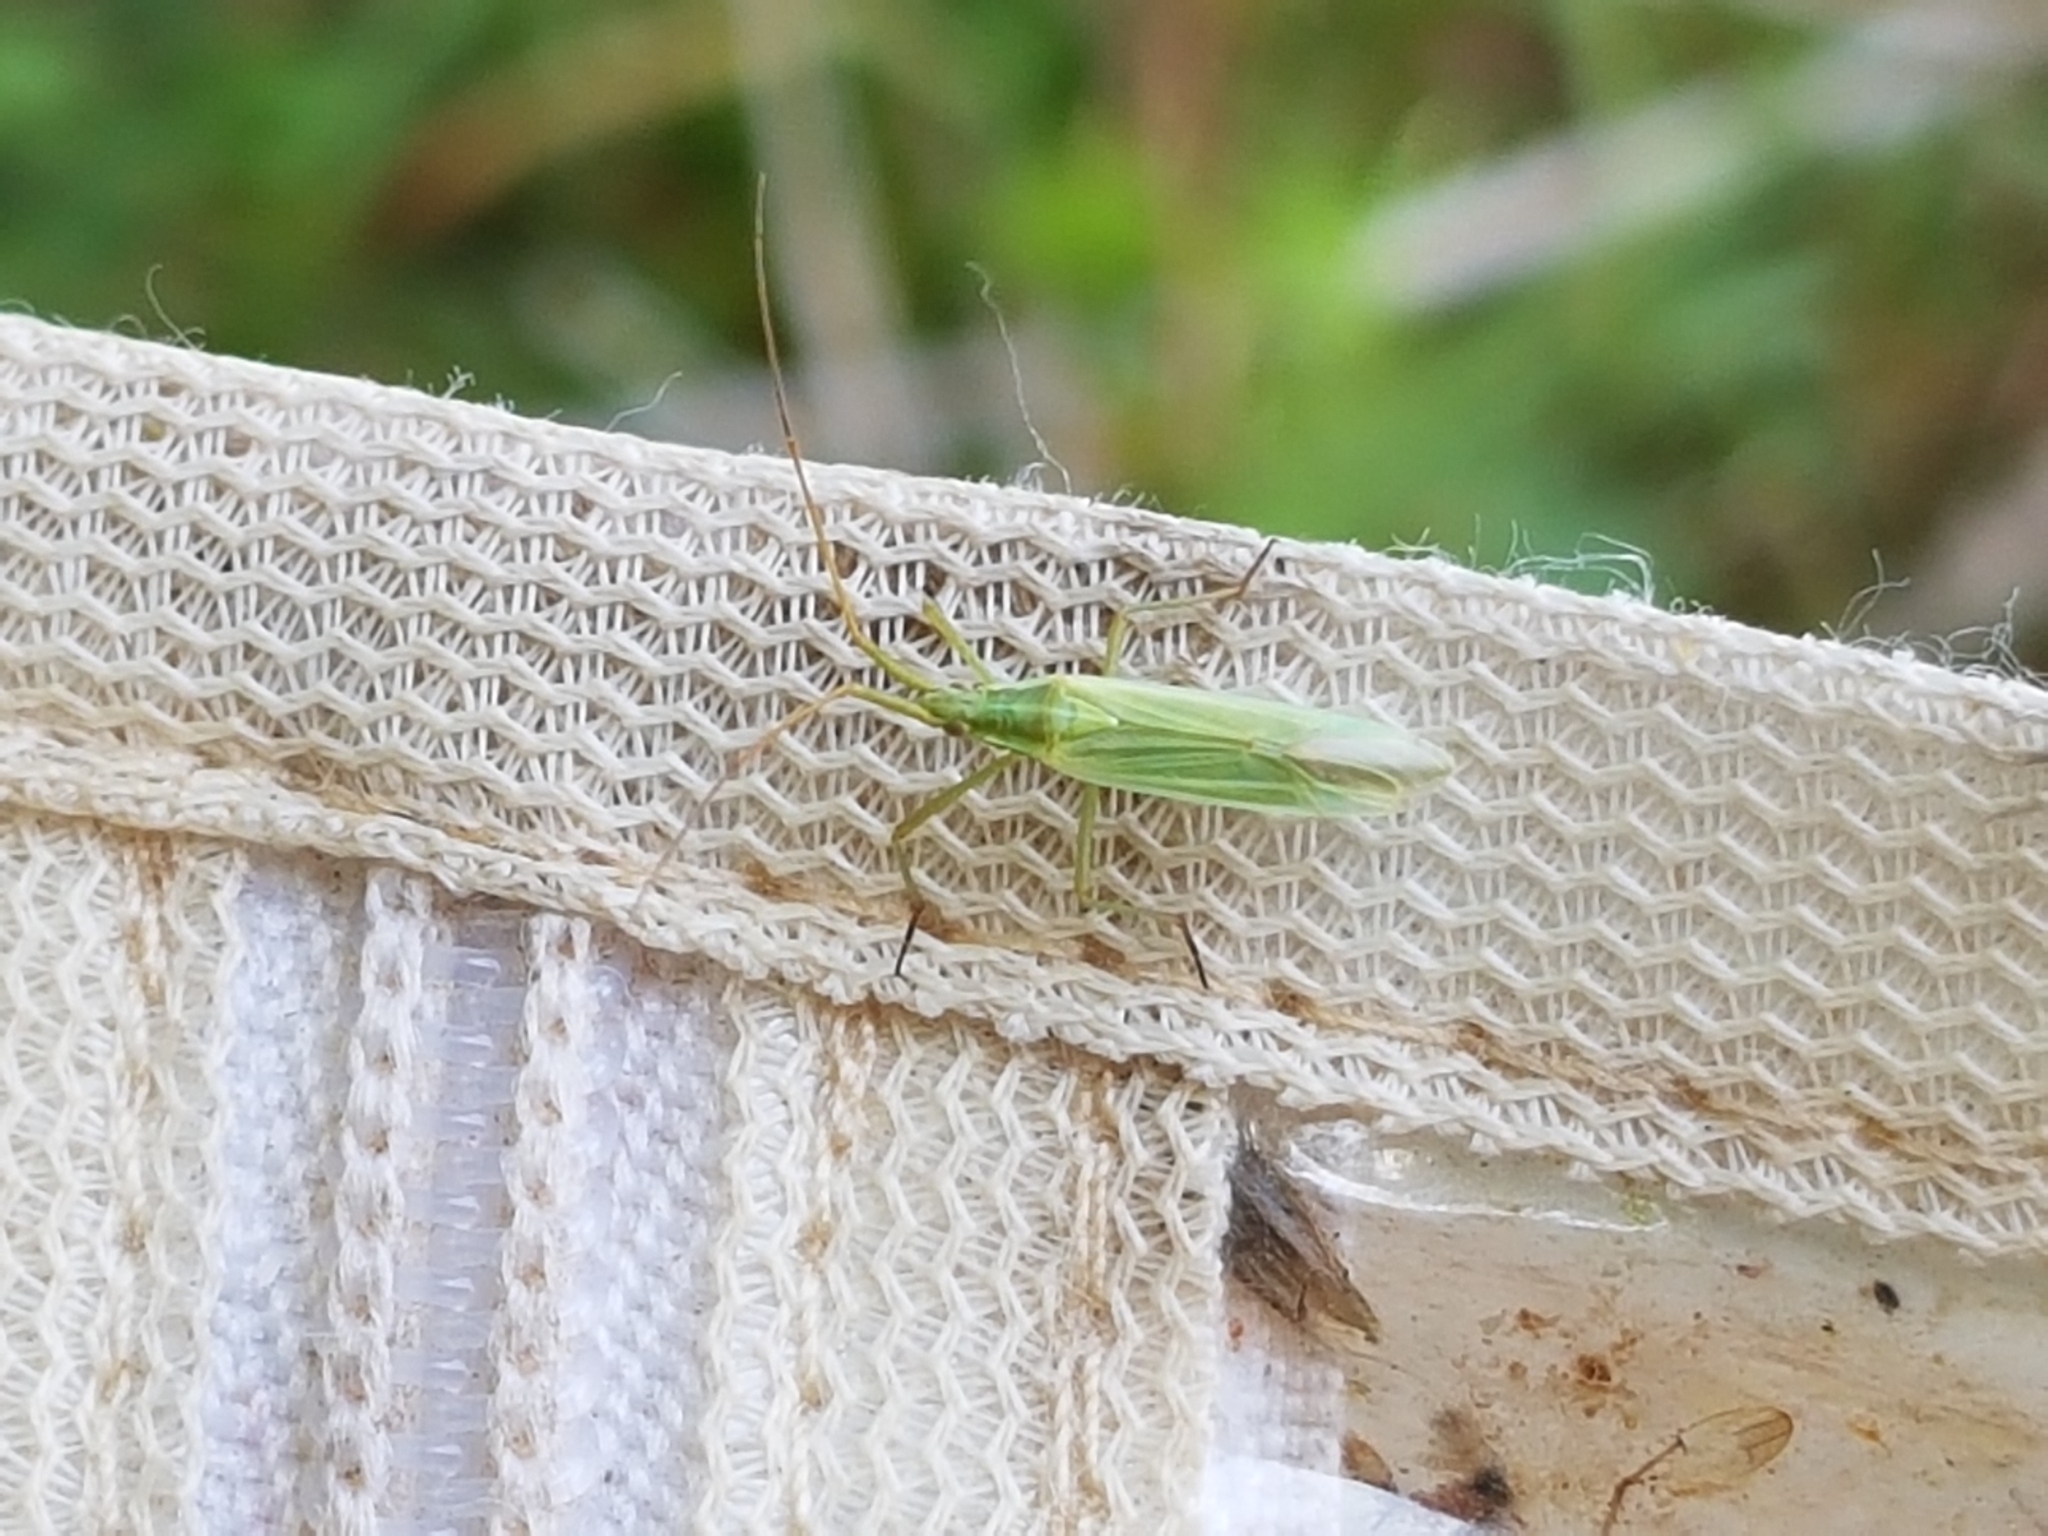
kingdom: Animalia
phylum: Arthropoda
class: Insecta
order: Hemiptera
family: Miridae
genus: Megaloceroea
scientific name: Megaloceroea recticornis
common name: Plant bug
